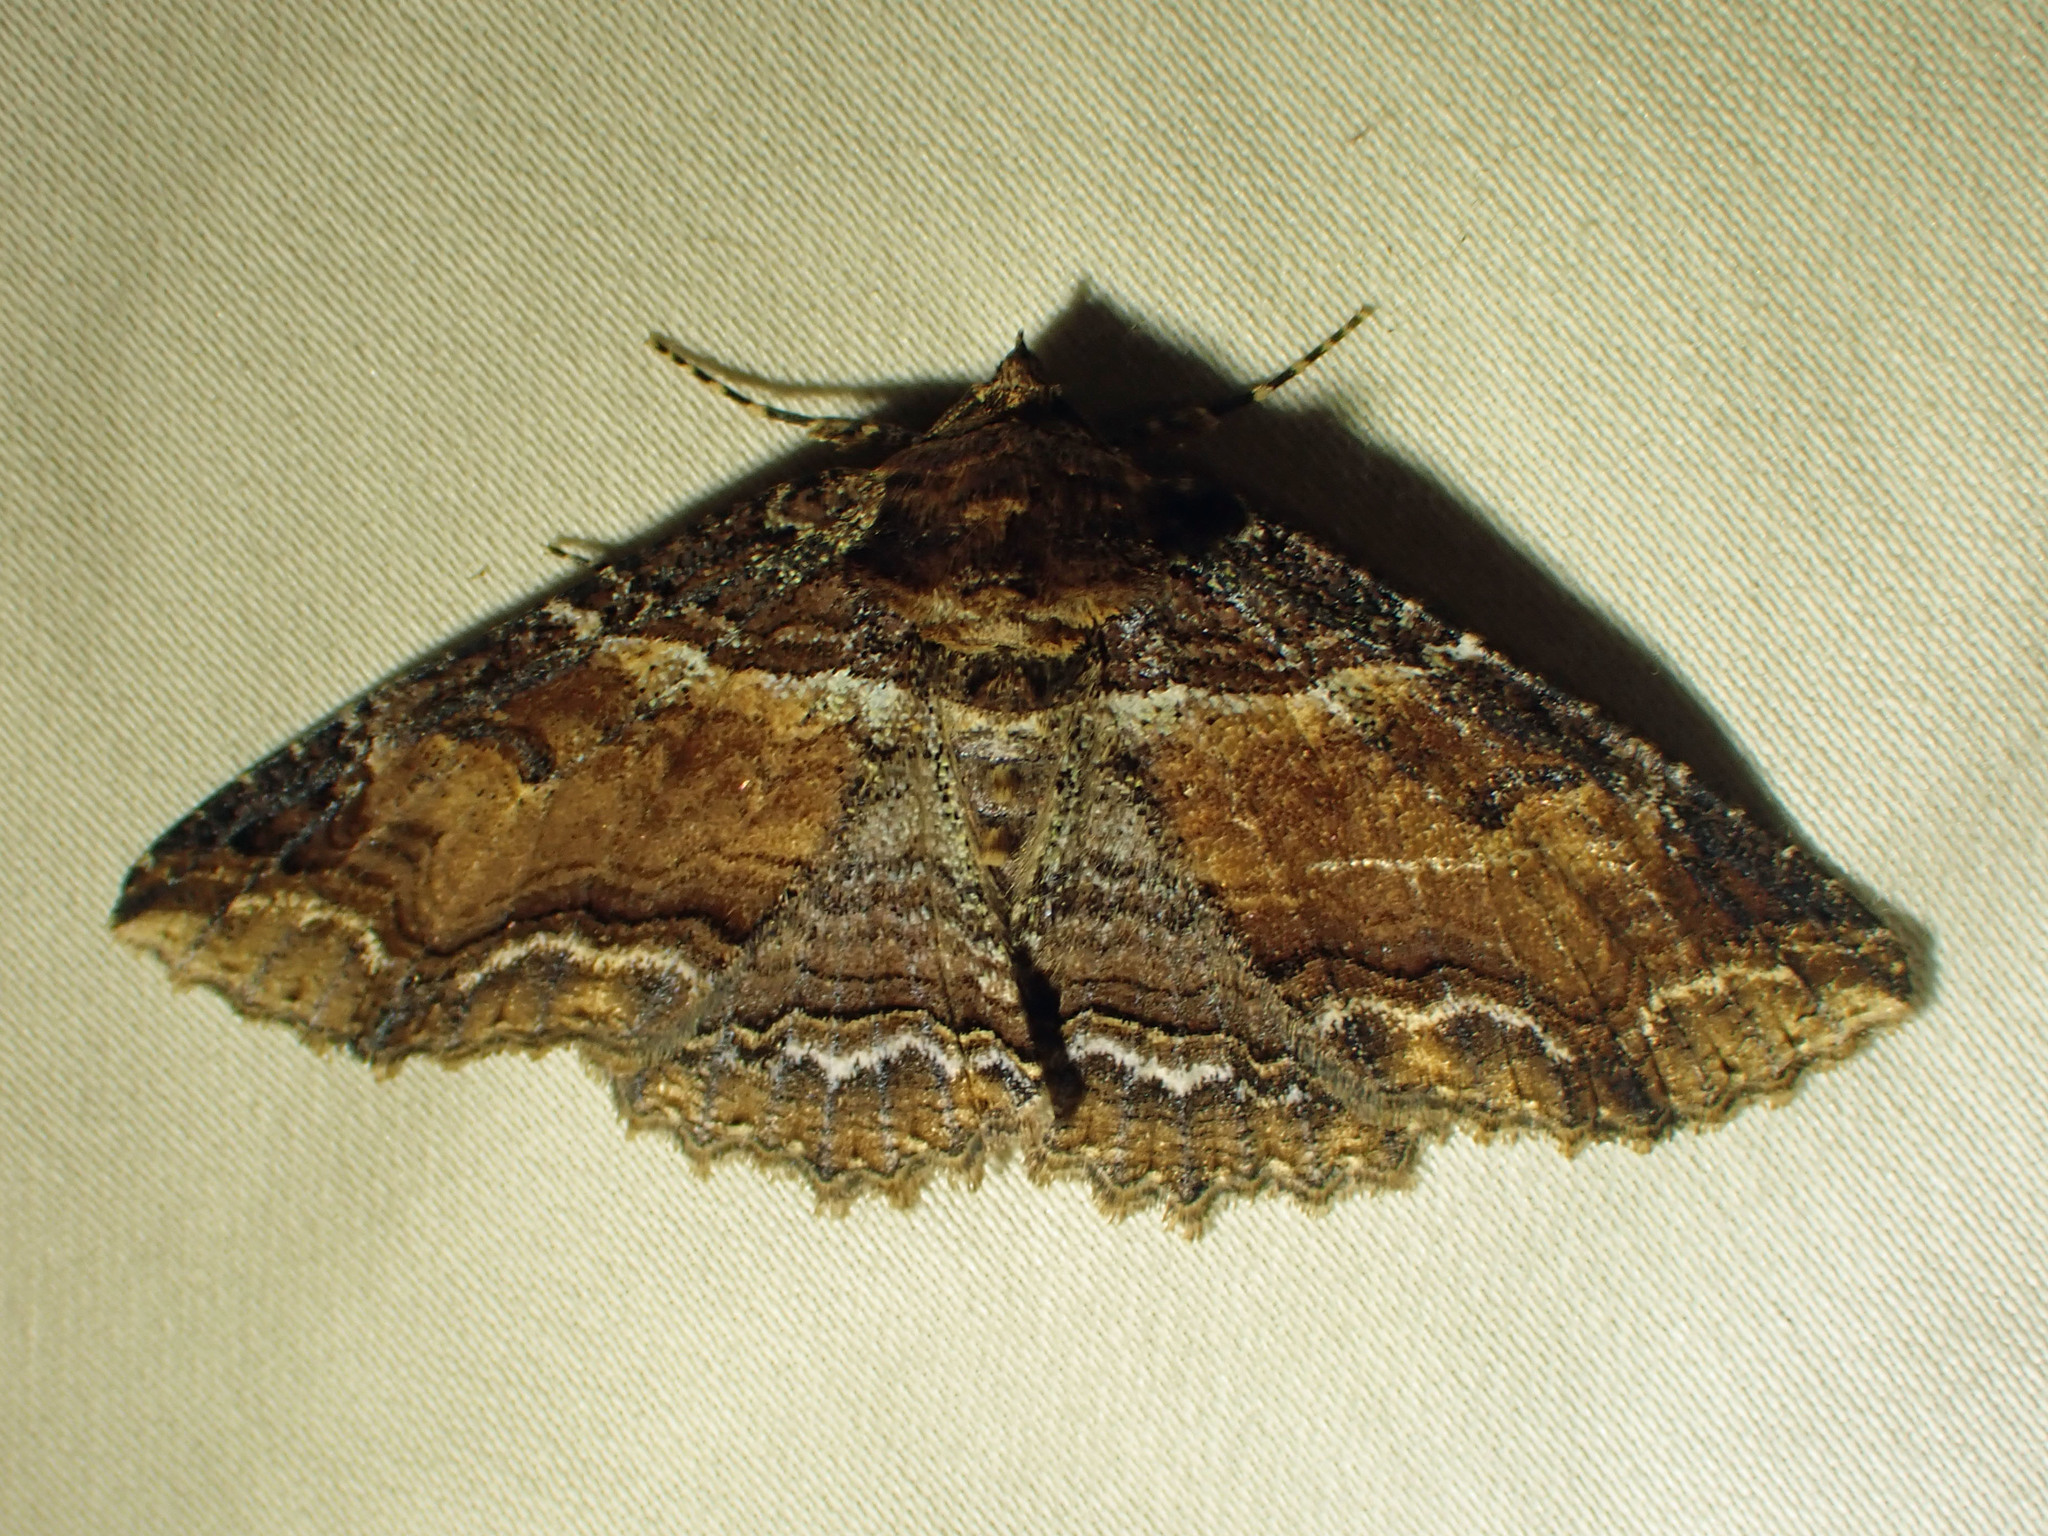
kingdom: Animalia
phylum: Arthropoda
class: Insecta
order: Lepidoptera
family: Erebidae
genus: Zale
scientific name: Zale minerea
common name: Colorful zale moth
